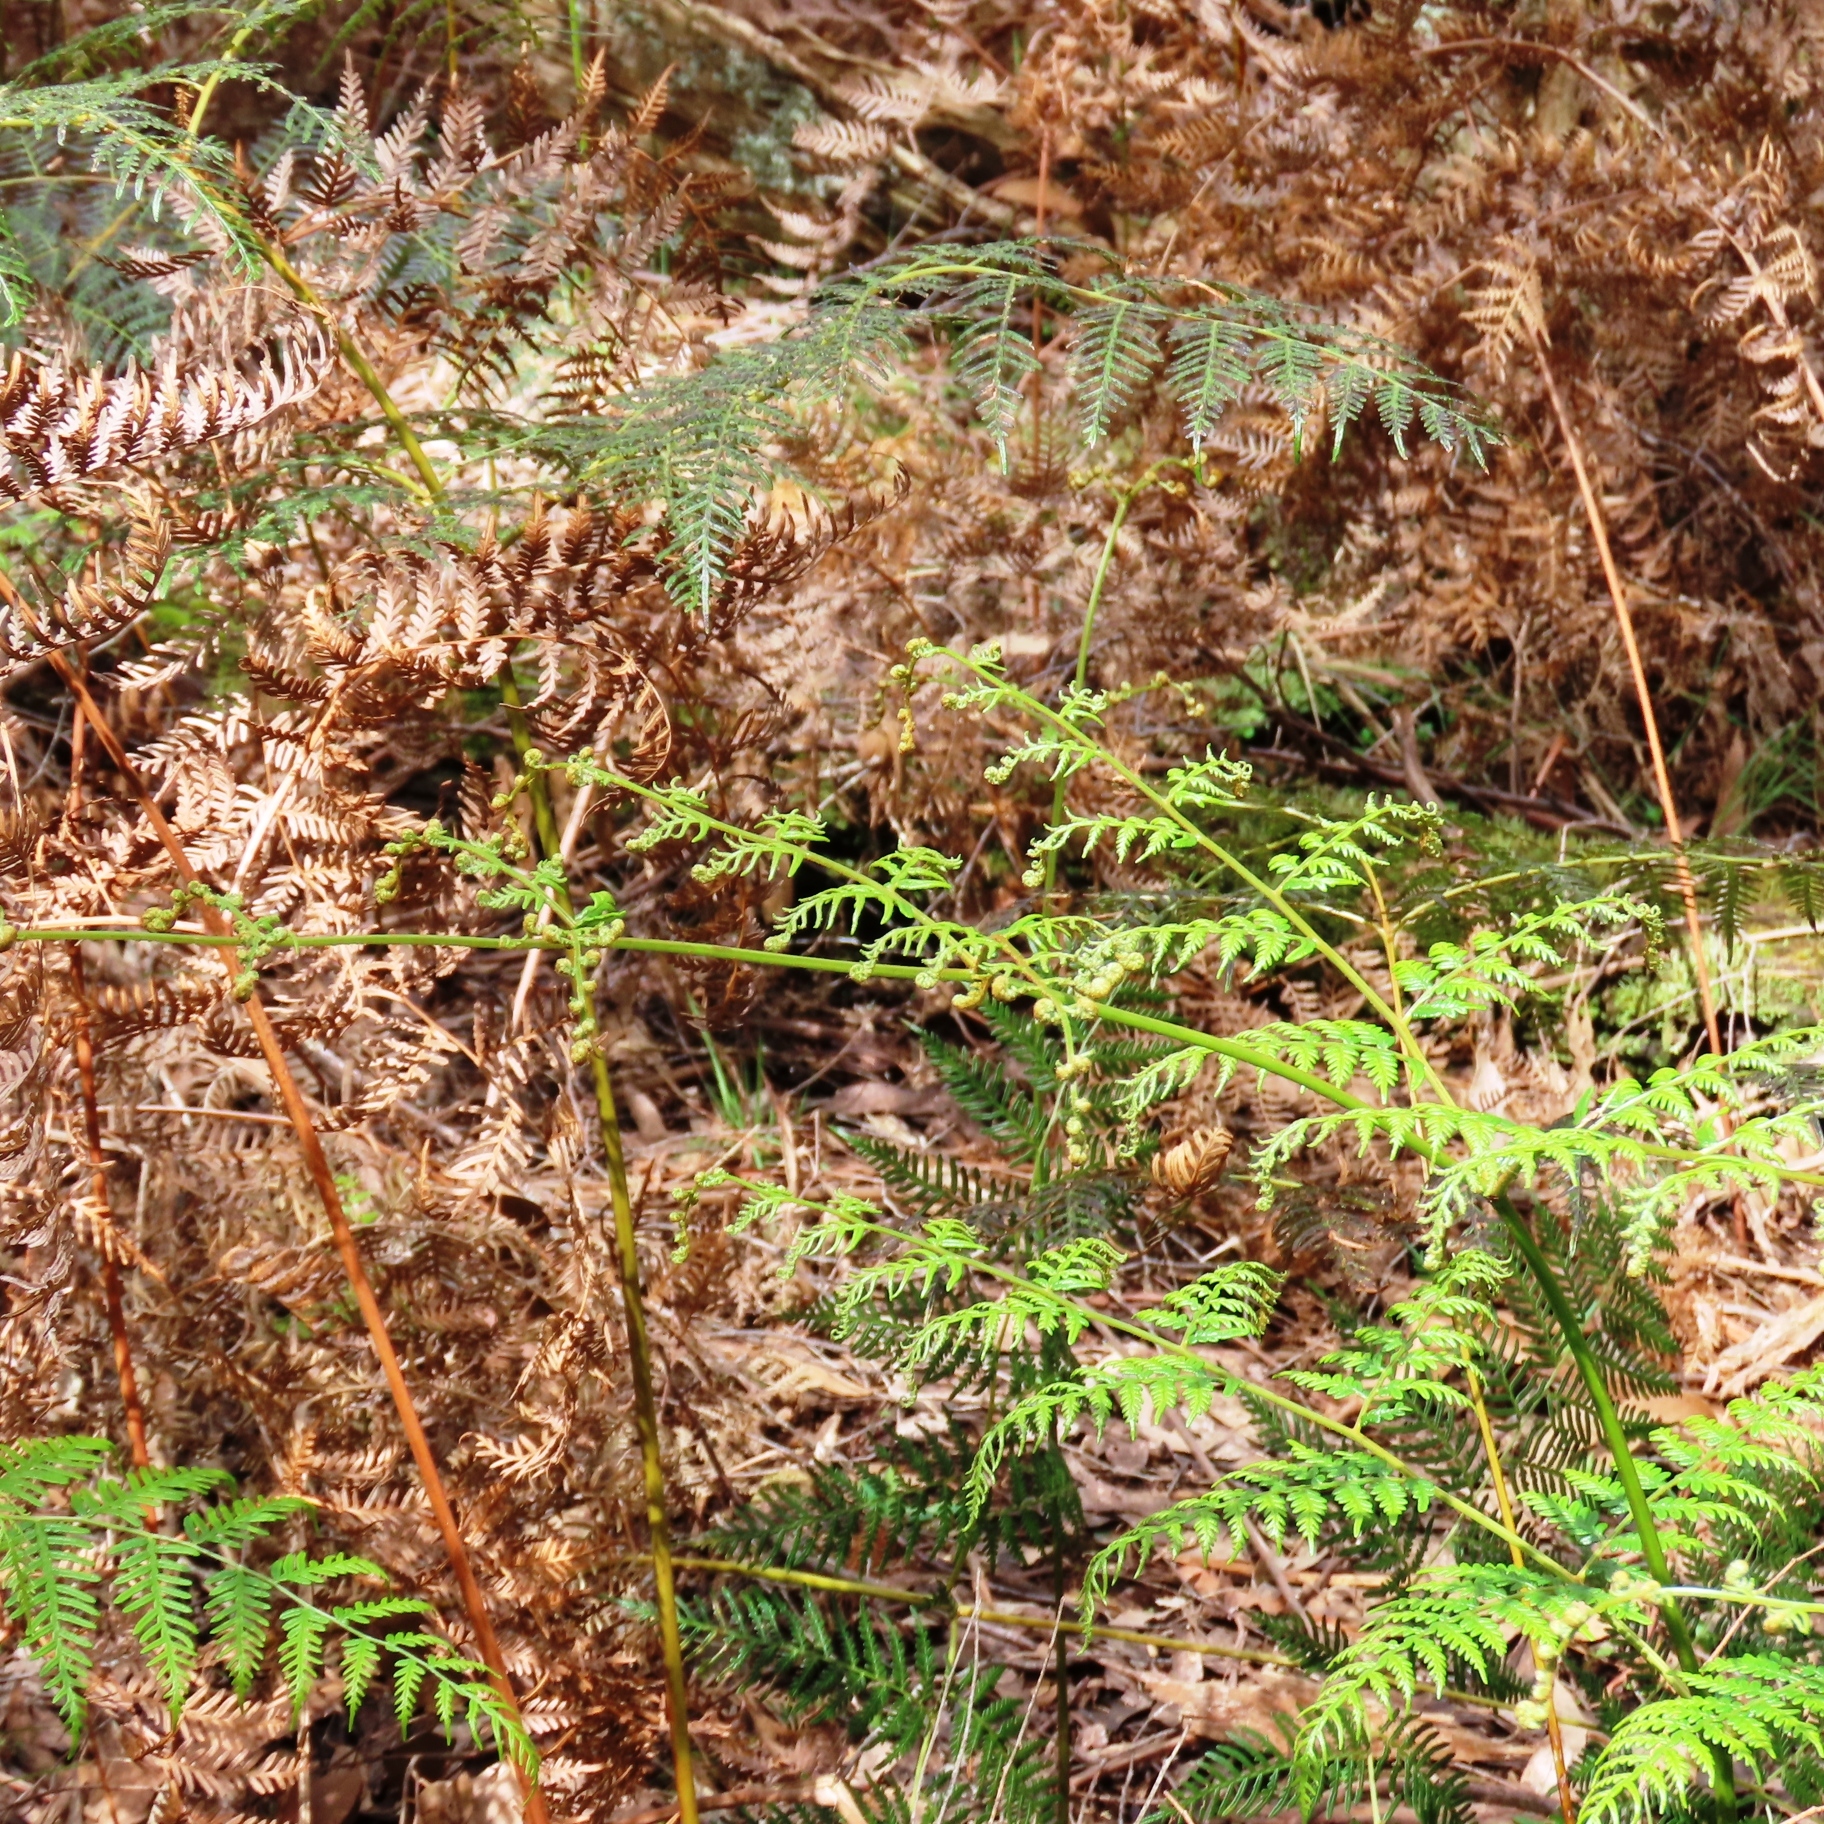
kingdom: Plantae
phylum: Tracheophyta
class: Polypodiopsida
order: Polypodiales
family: Dennstaedtiaceae
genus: Pteridium
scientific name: Pteridium esculentum
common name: Bracken fern
